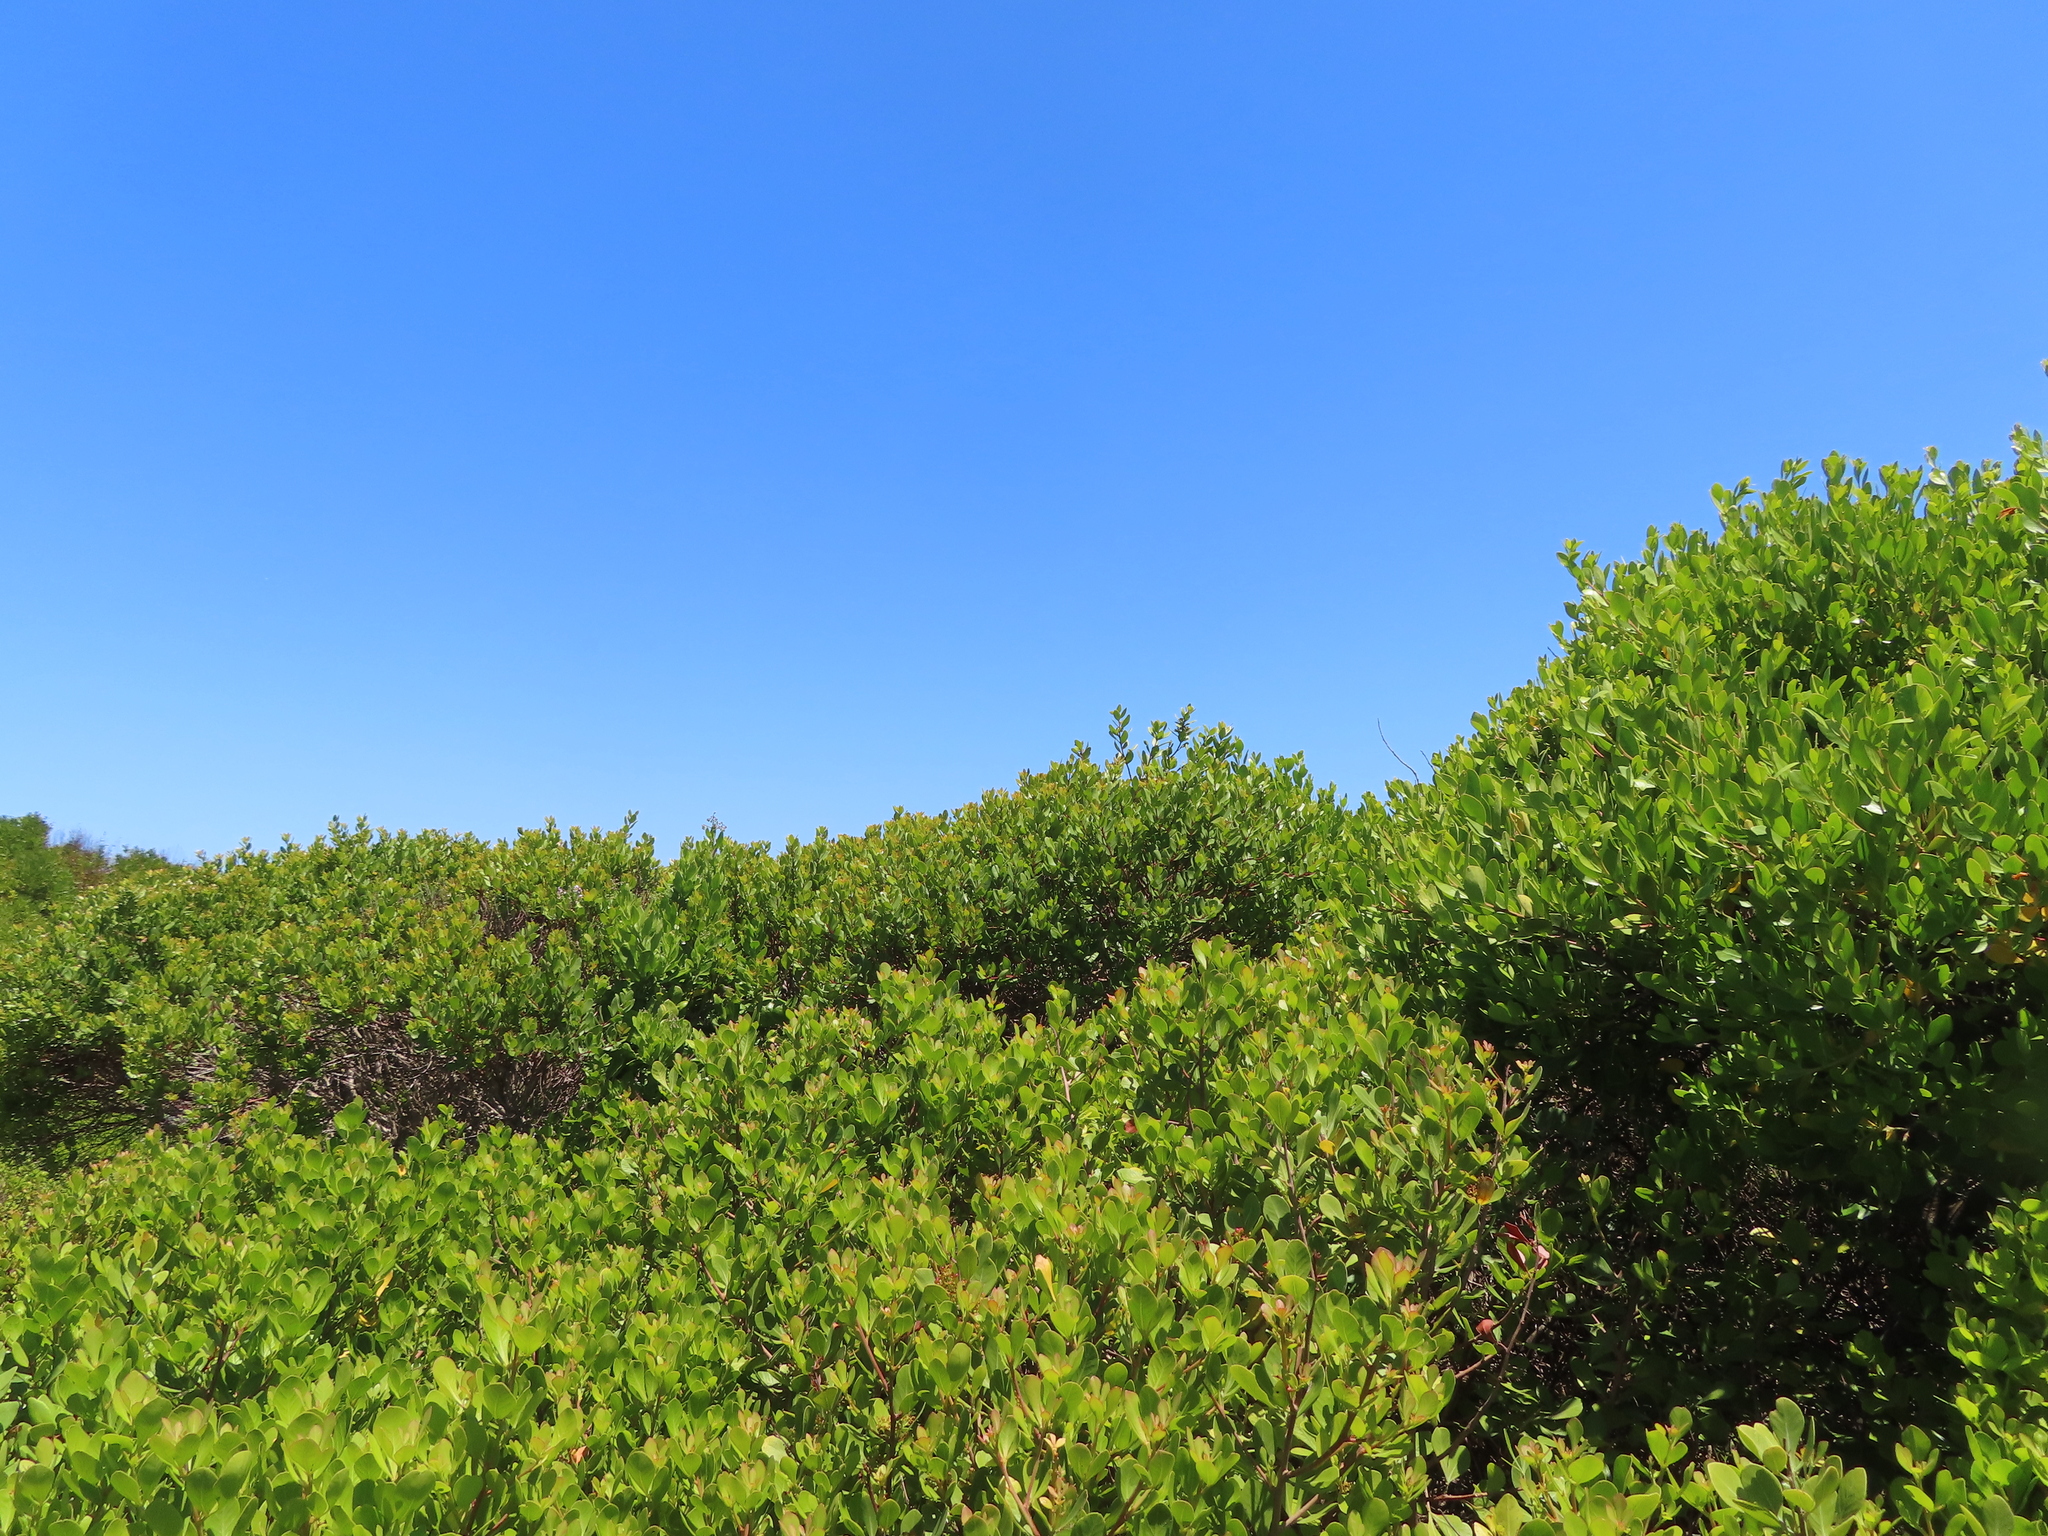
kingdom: Plantae
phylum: Tracheophyta
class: Magnoliopsida
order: Celastrales
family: Celastraceae
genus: Pterocelastrus
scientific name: Pterocelastrus tricuspidatus
